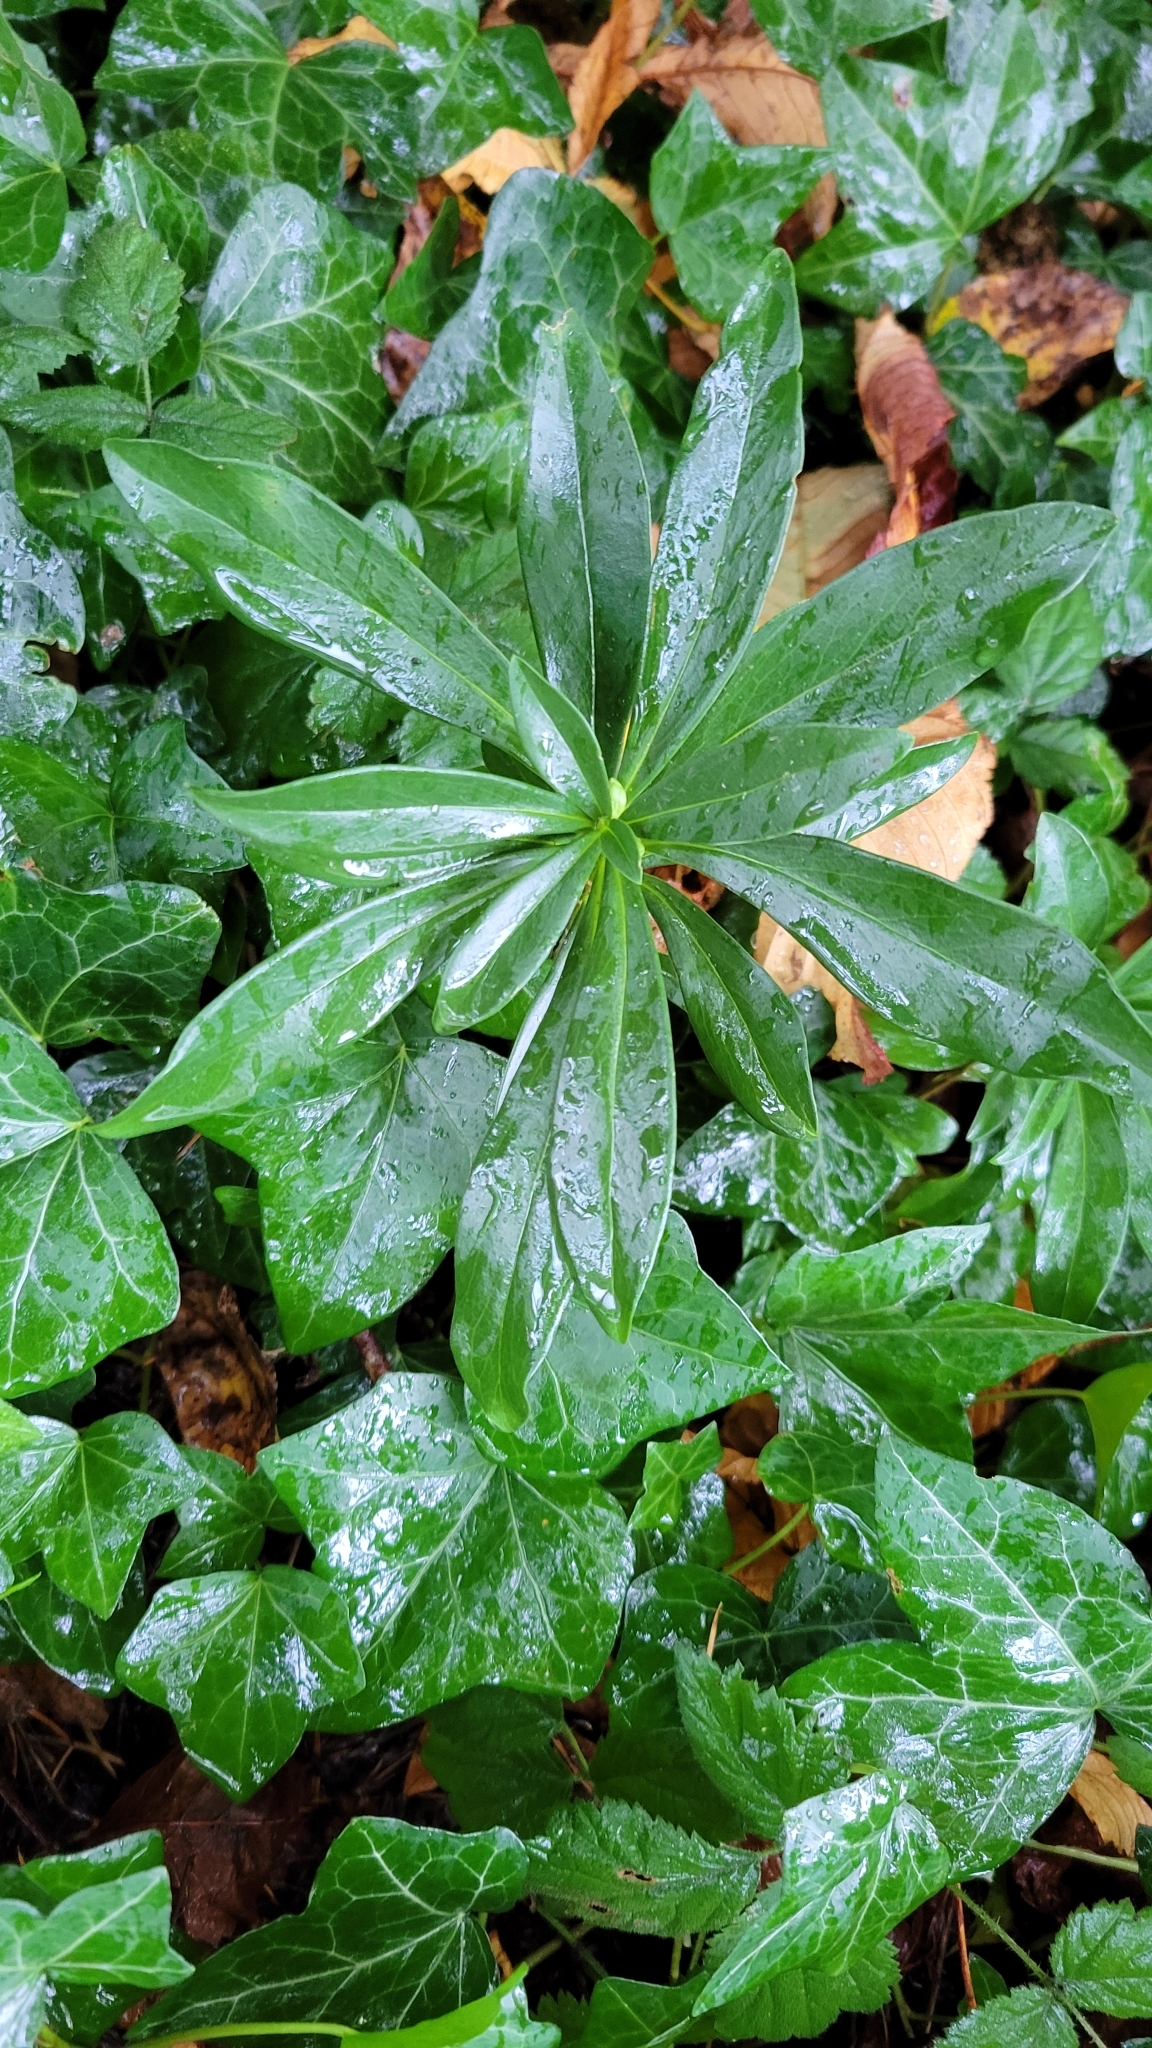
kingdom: Plantae
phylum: Tracheophyta
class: Magnoliopsida
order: Malvales
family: Thymelaeaceae
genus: Daphne
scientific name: Daphne laureola
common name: Spurge-laurel
